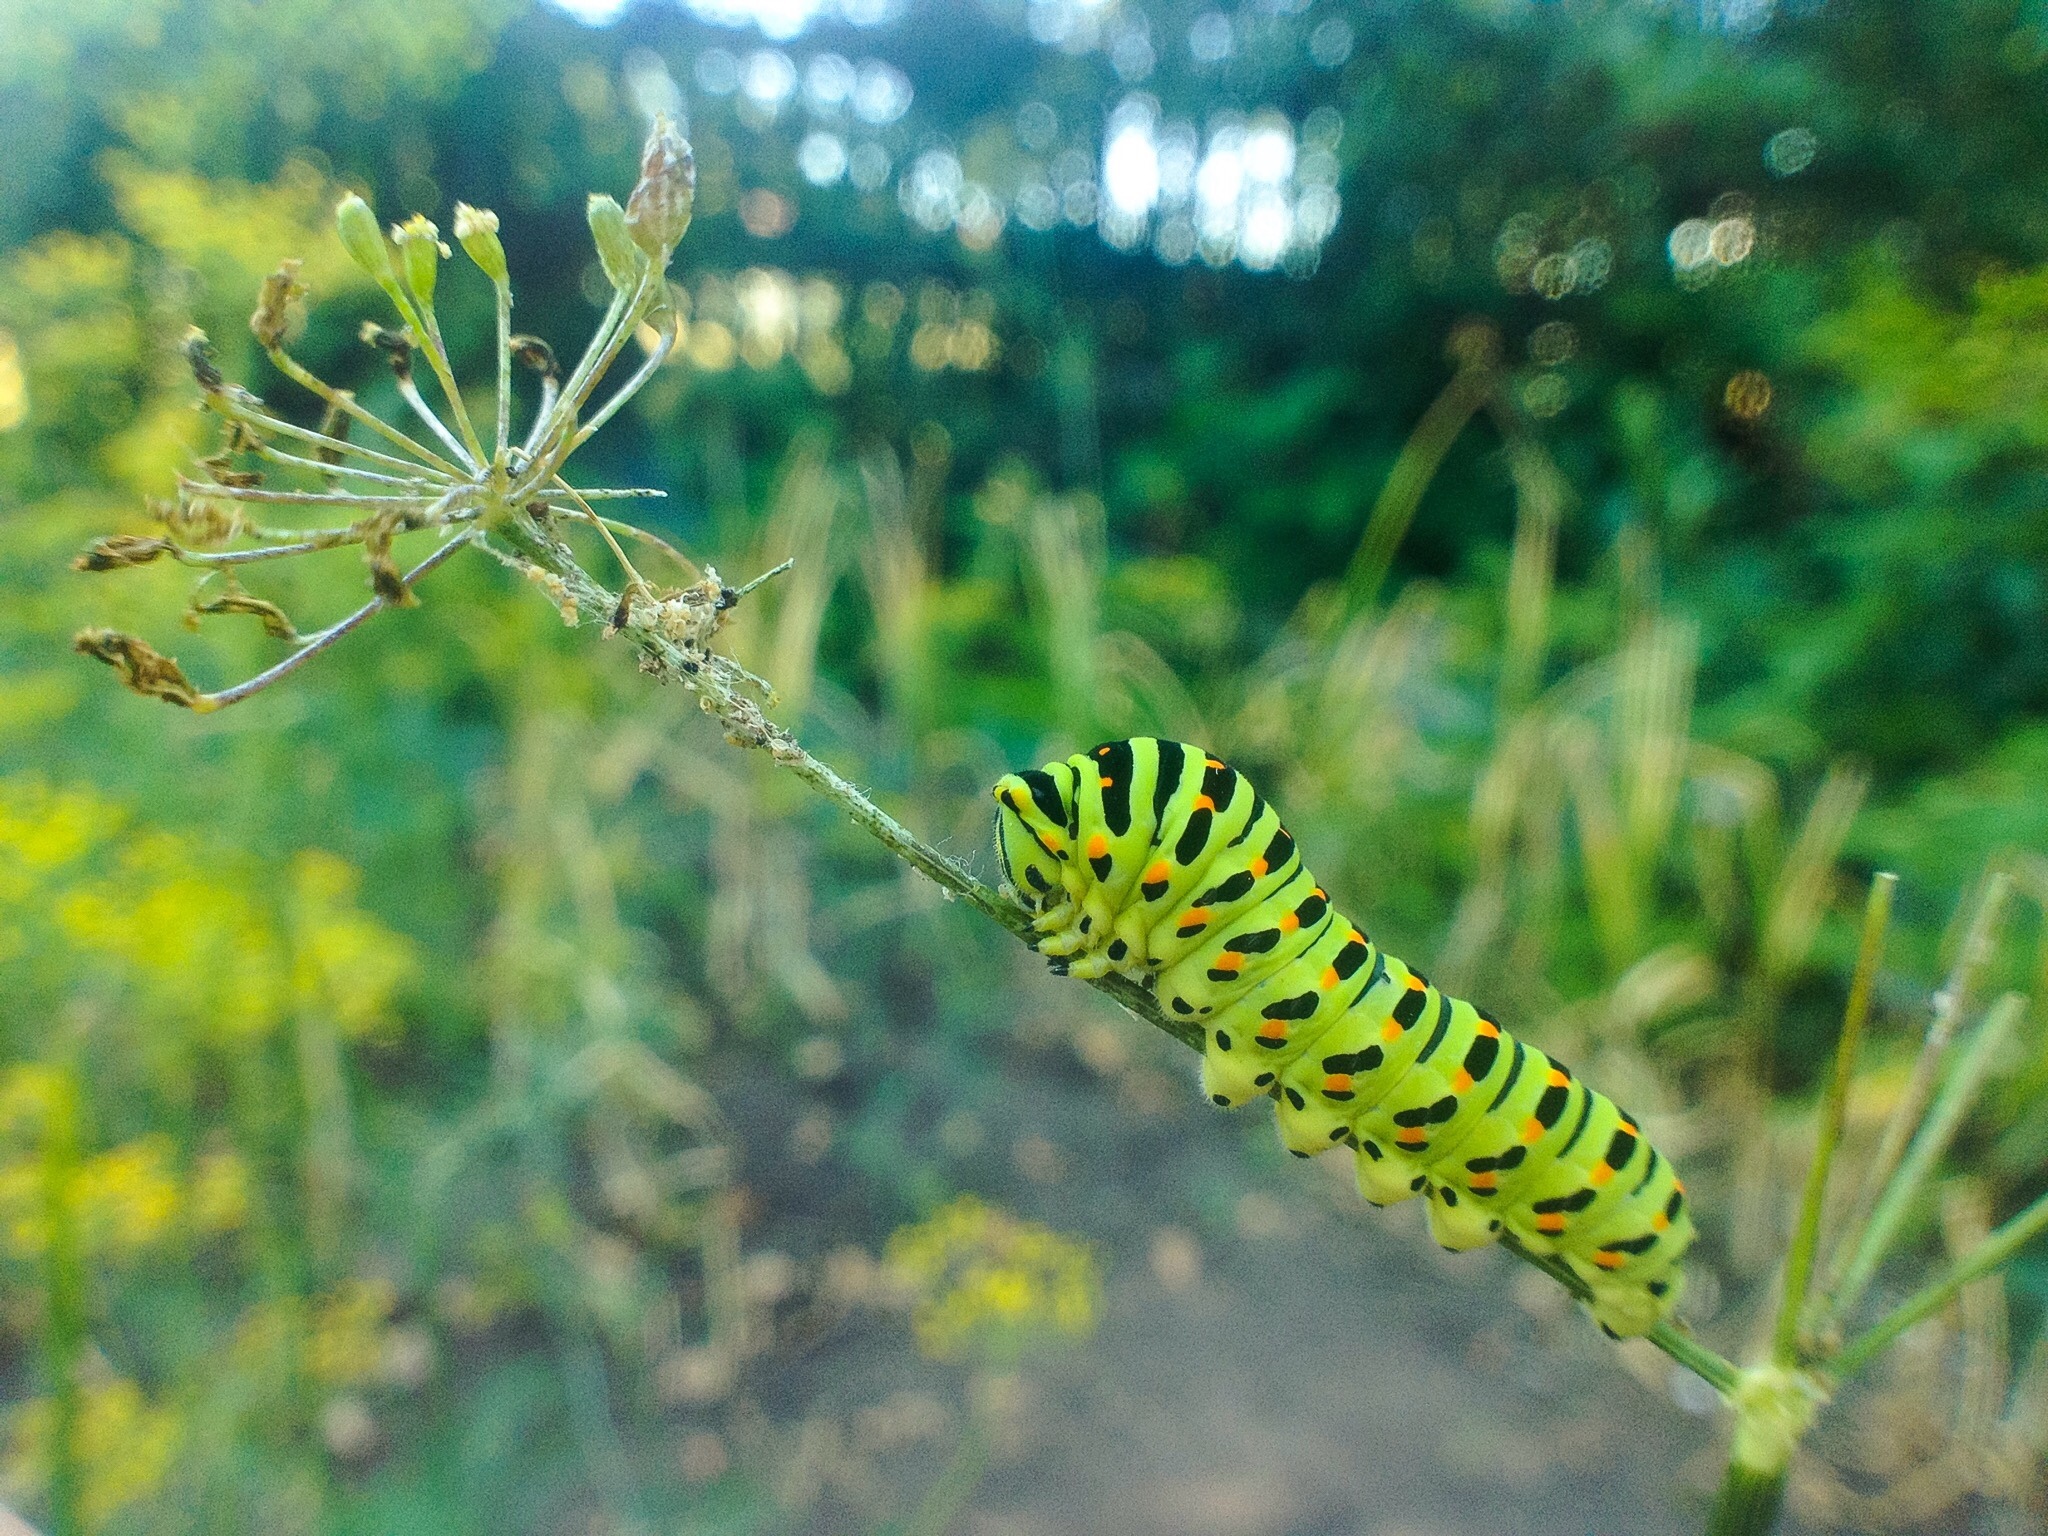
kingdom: Animalia
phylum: Arthropoda
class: Insecta
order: Lepidoptera
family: Papilionidae
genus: Papilio
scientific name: Papilio machaon
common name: Swallowtail
